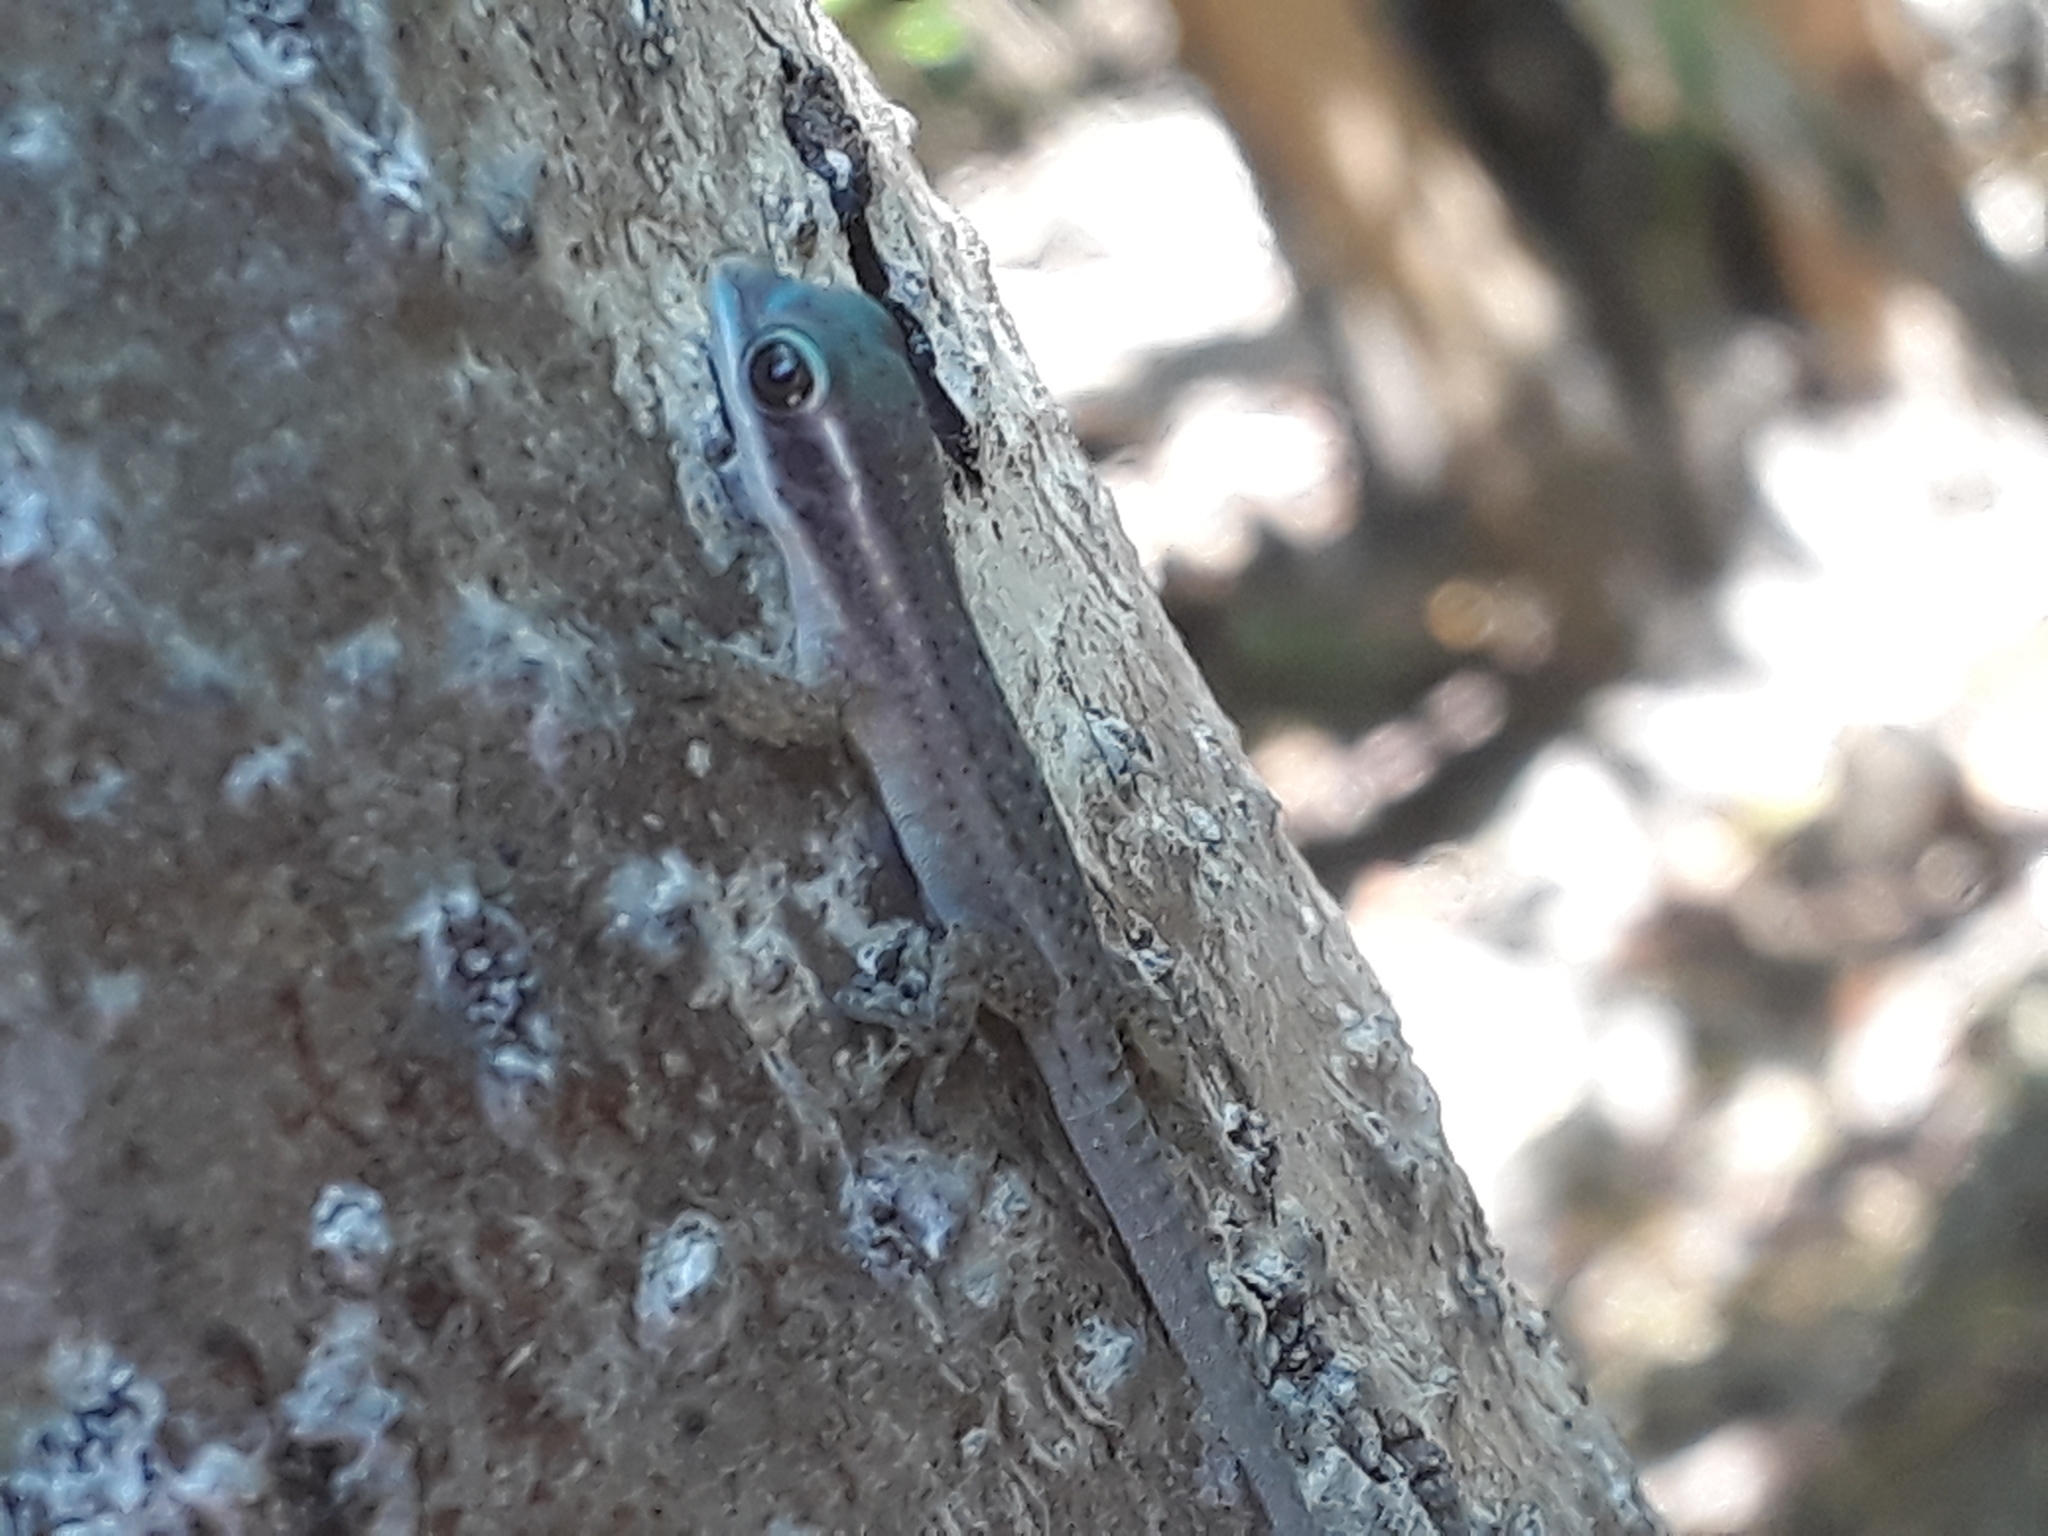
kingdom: Animalia
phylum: Chordata
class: Squamata
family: Gekkonidae
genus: Phelsuma
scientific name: Phelsuma ornata
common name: Ornate day gecko
